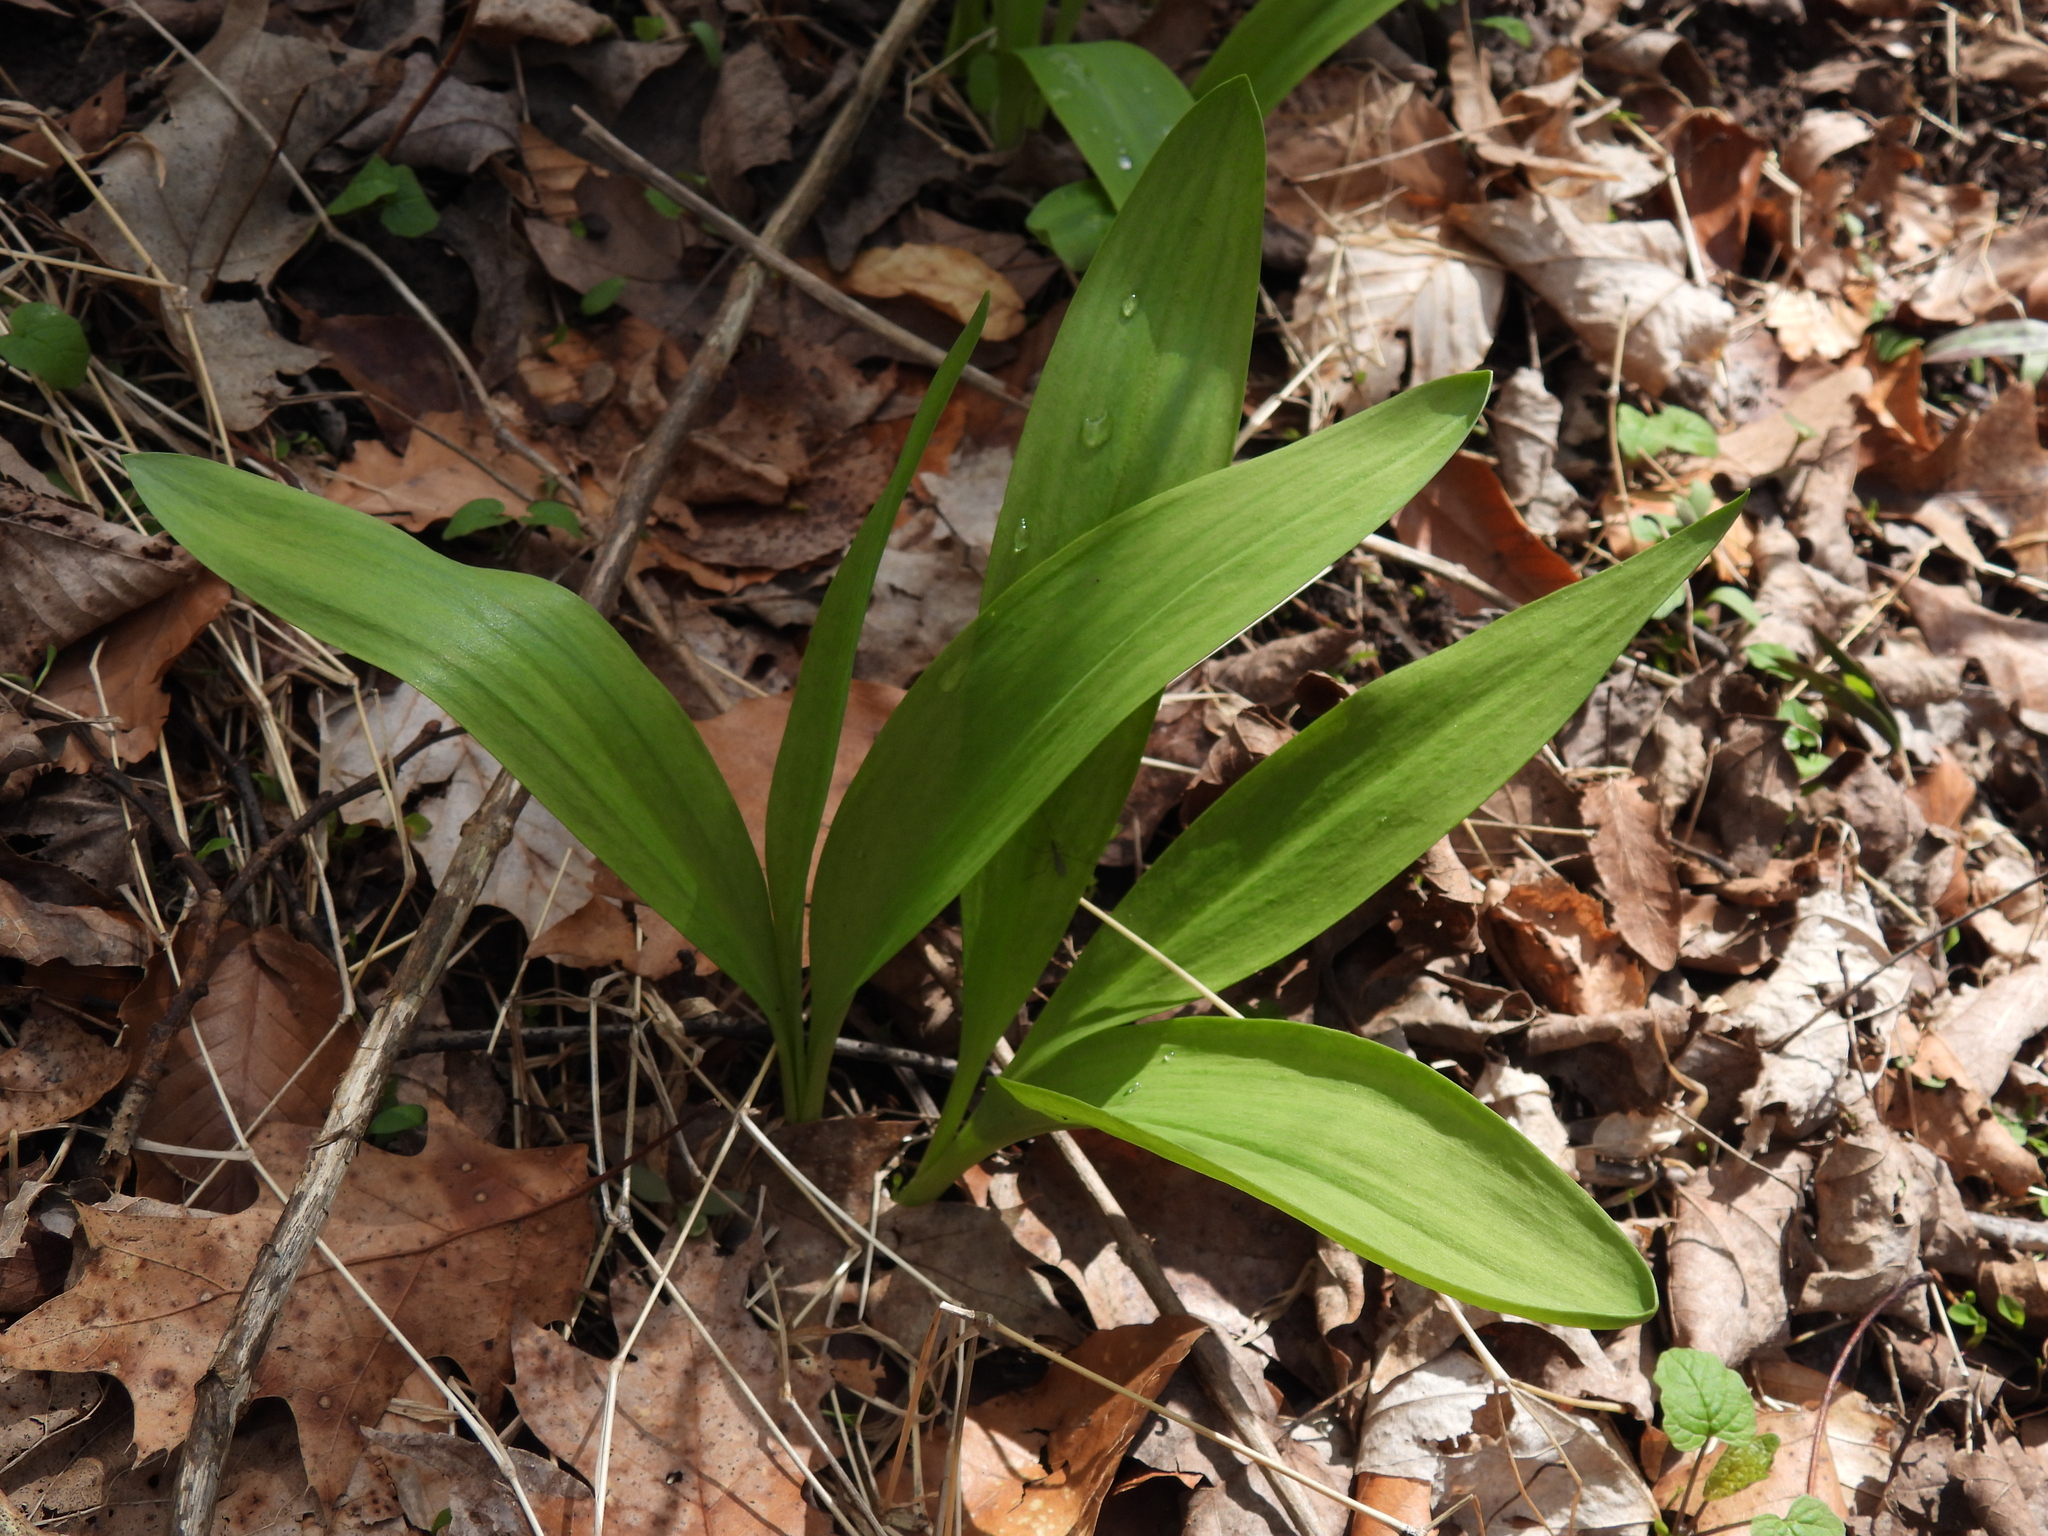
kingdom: Plantae
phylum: Tracheophyta
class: Liliopsida
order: Asparagales
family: Amaryllidaceae
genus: Allium
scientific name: Allium tricoccum
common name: Ramp
